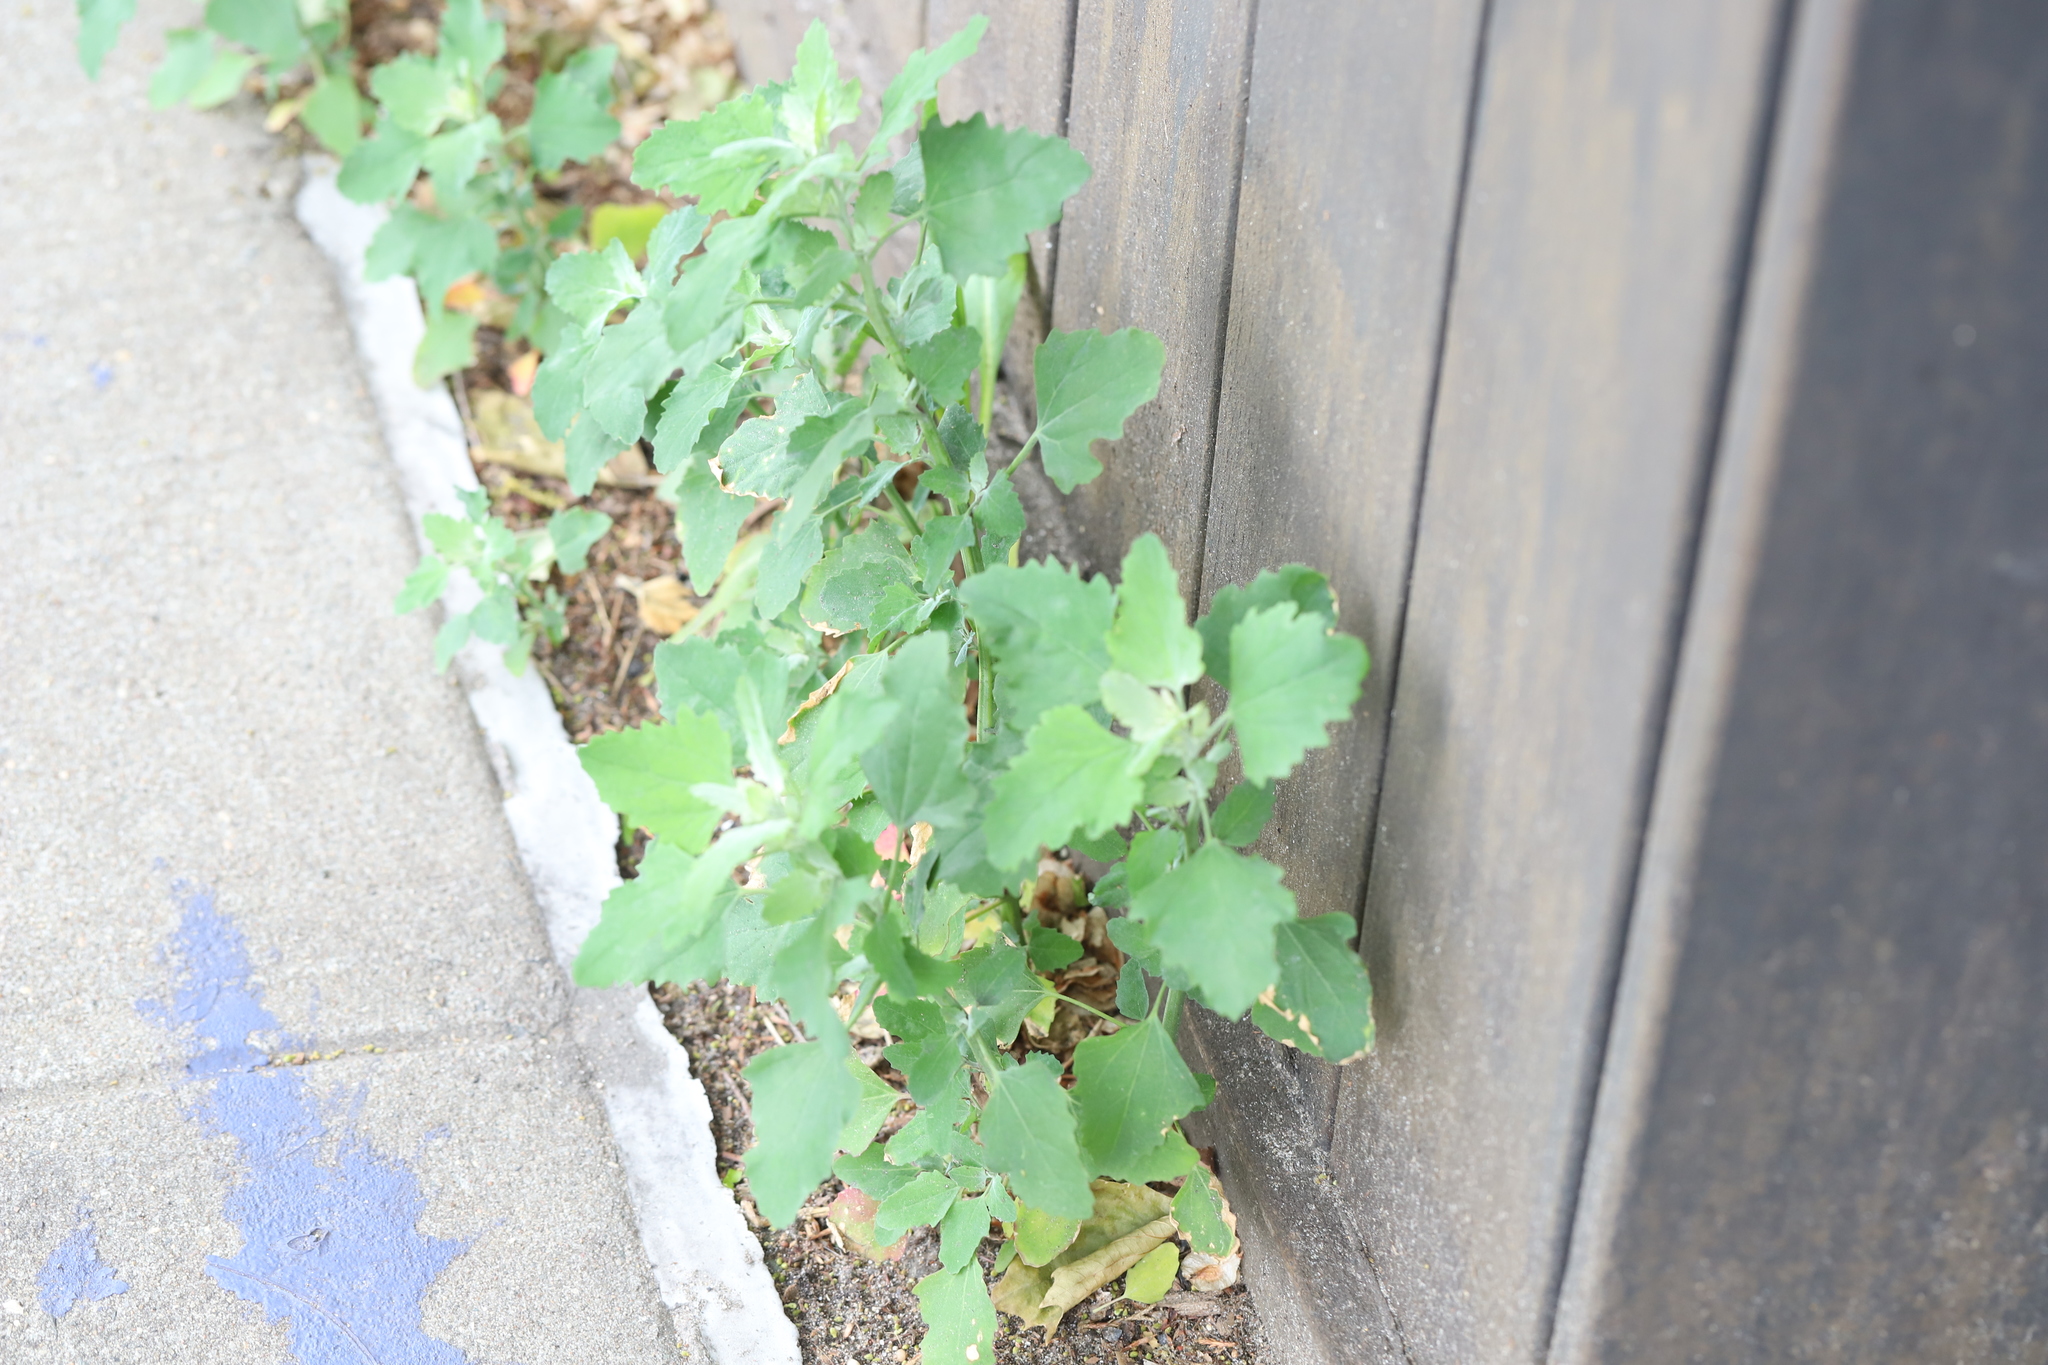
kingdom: Plantae
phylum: Tracheophyta
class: Magnoliopsida
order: Caryophyllales
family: Amaranthaceae
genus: Chenopodium
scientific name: Chenopodium album
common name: Fat-hen
